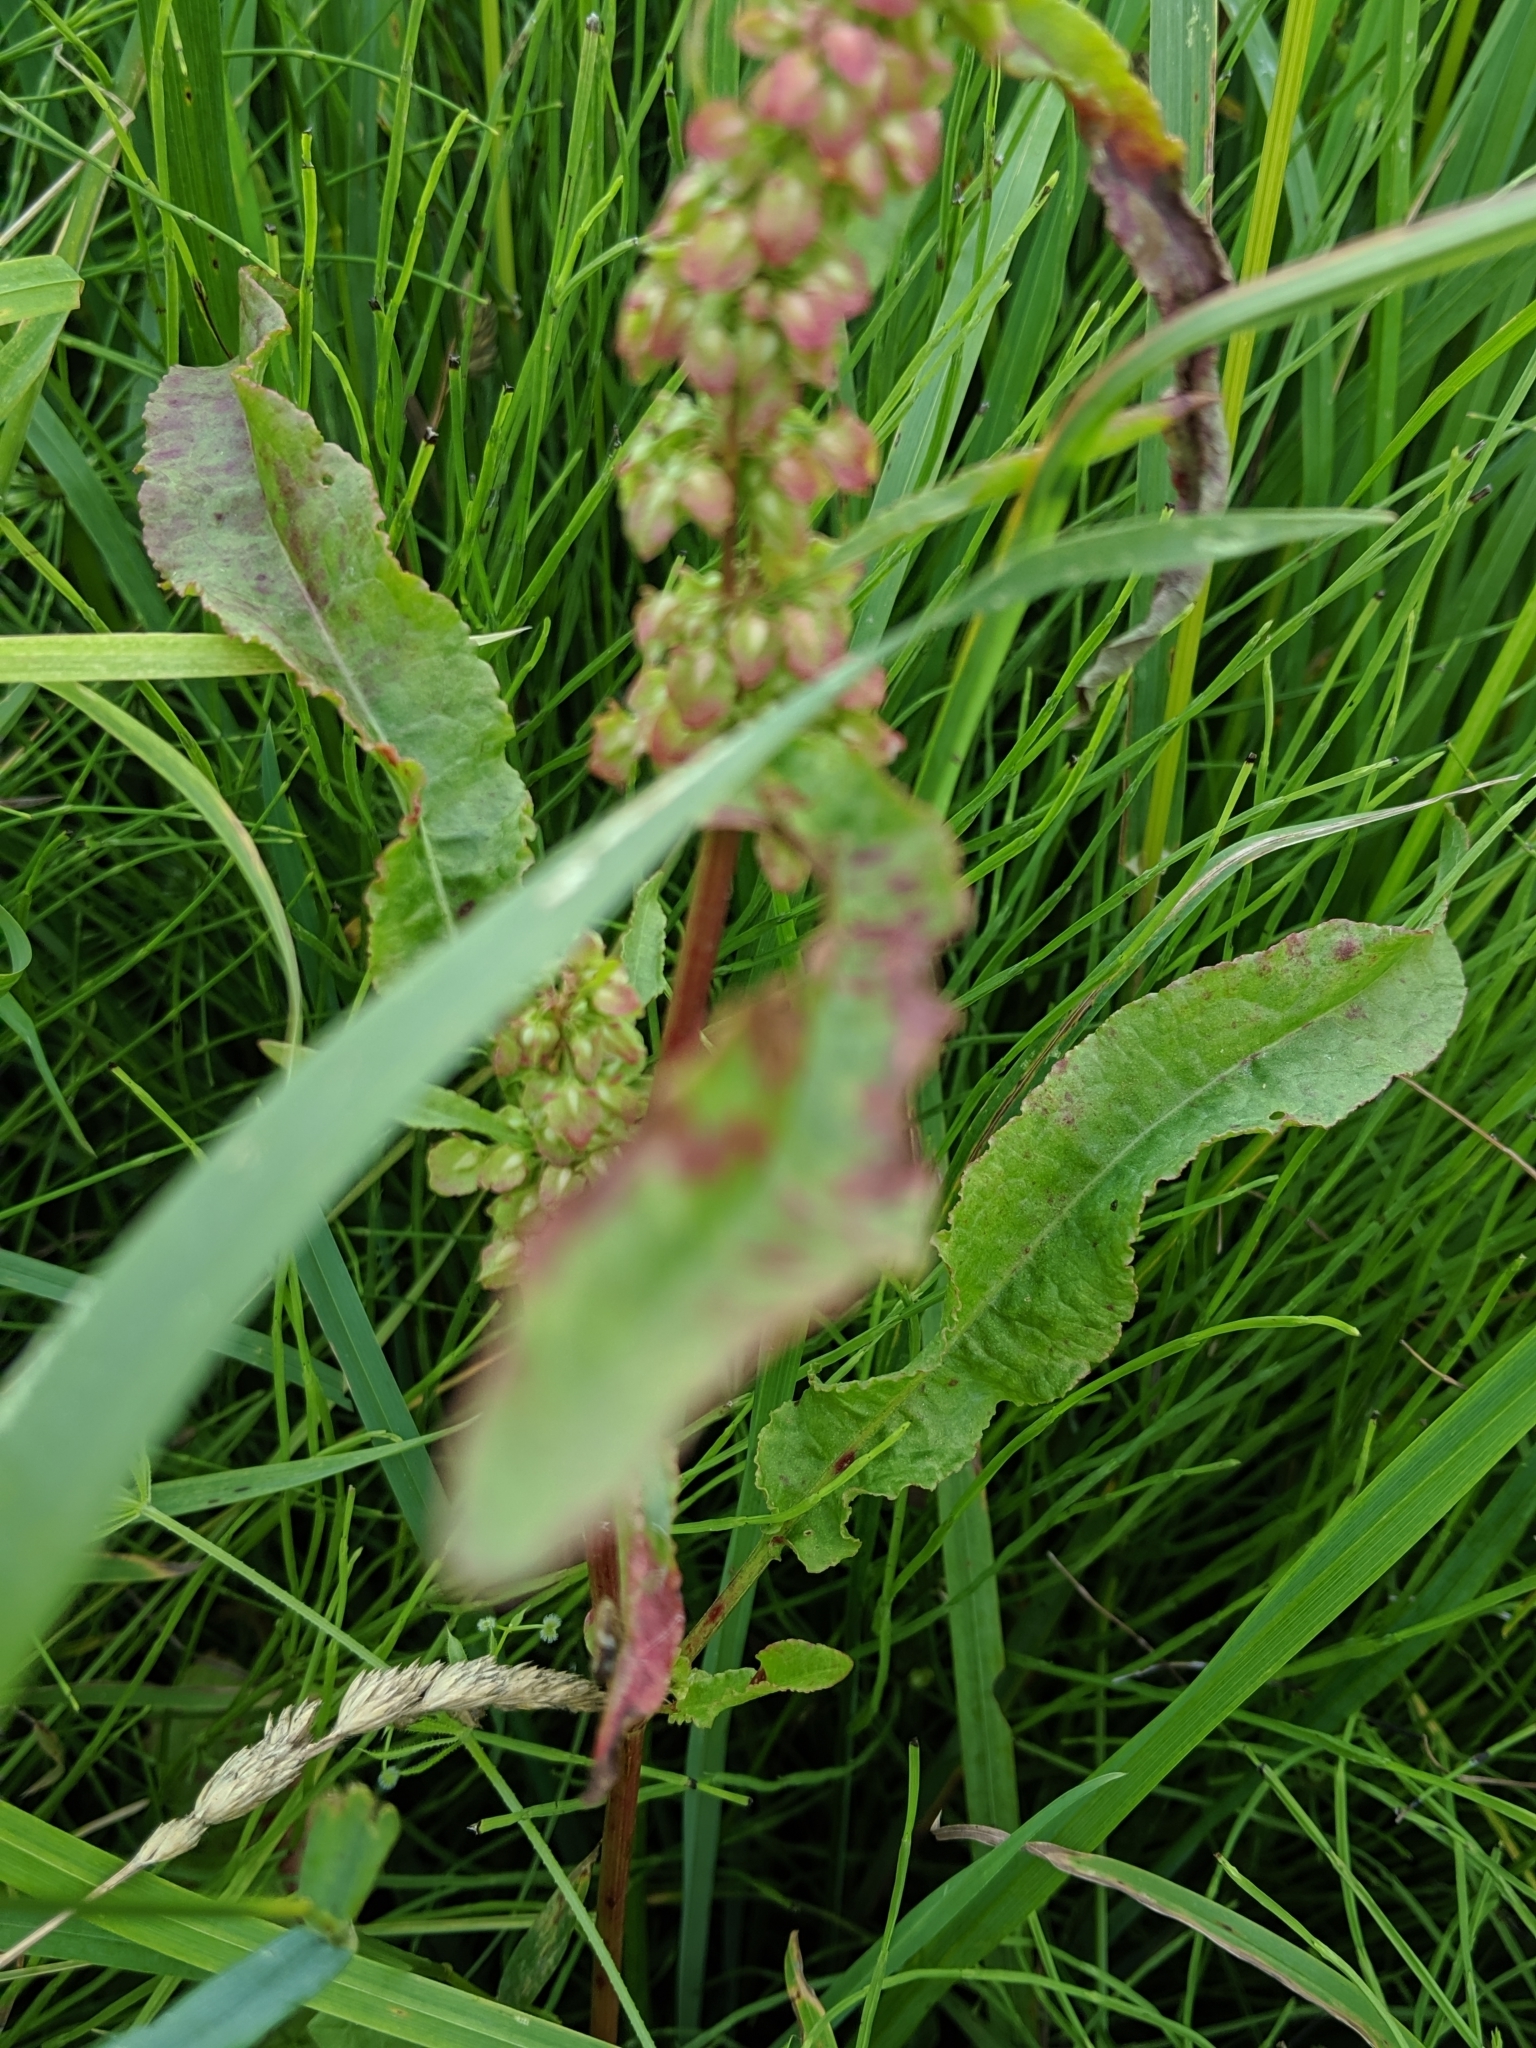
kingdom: Plantae
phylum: Tracheophyta
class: Magnoliopsida
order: Caryophyllales
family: Polygonaceae
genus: Rumex
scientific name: Rumex crispus
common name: Curled dock
